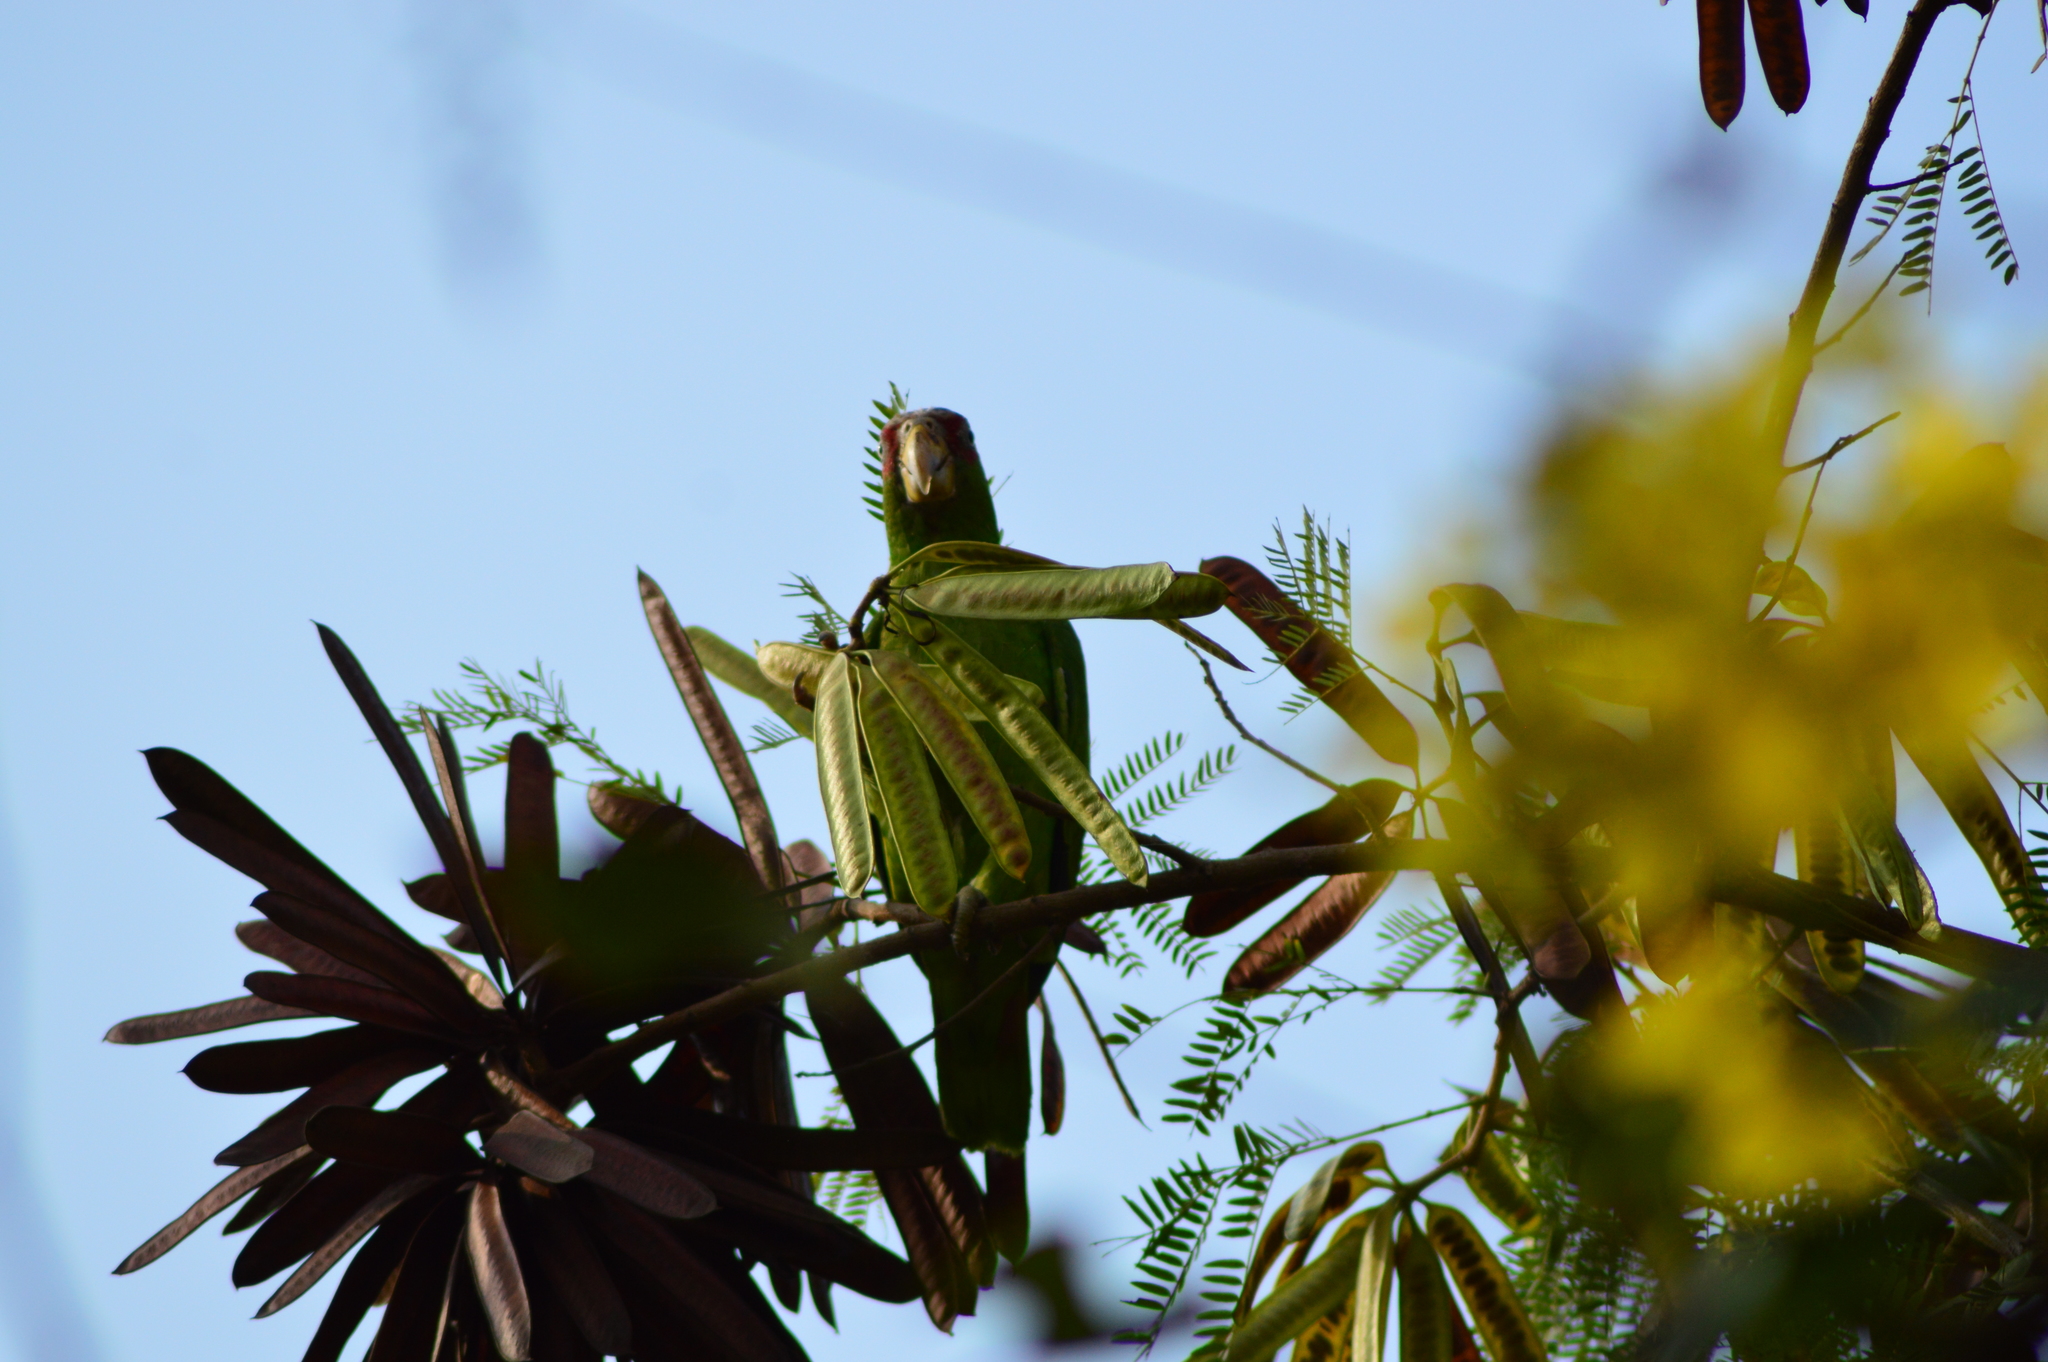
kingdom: Animalia
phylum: Chordata
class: Aves
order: Psittaciformes
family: Psittacidae
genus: Amazona
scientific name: Amazona albifrons
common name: White-fronted amazon
